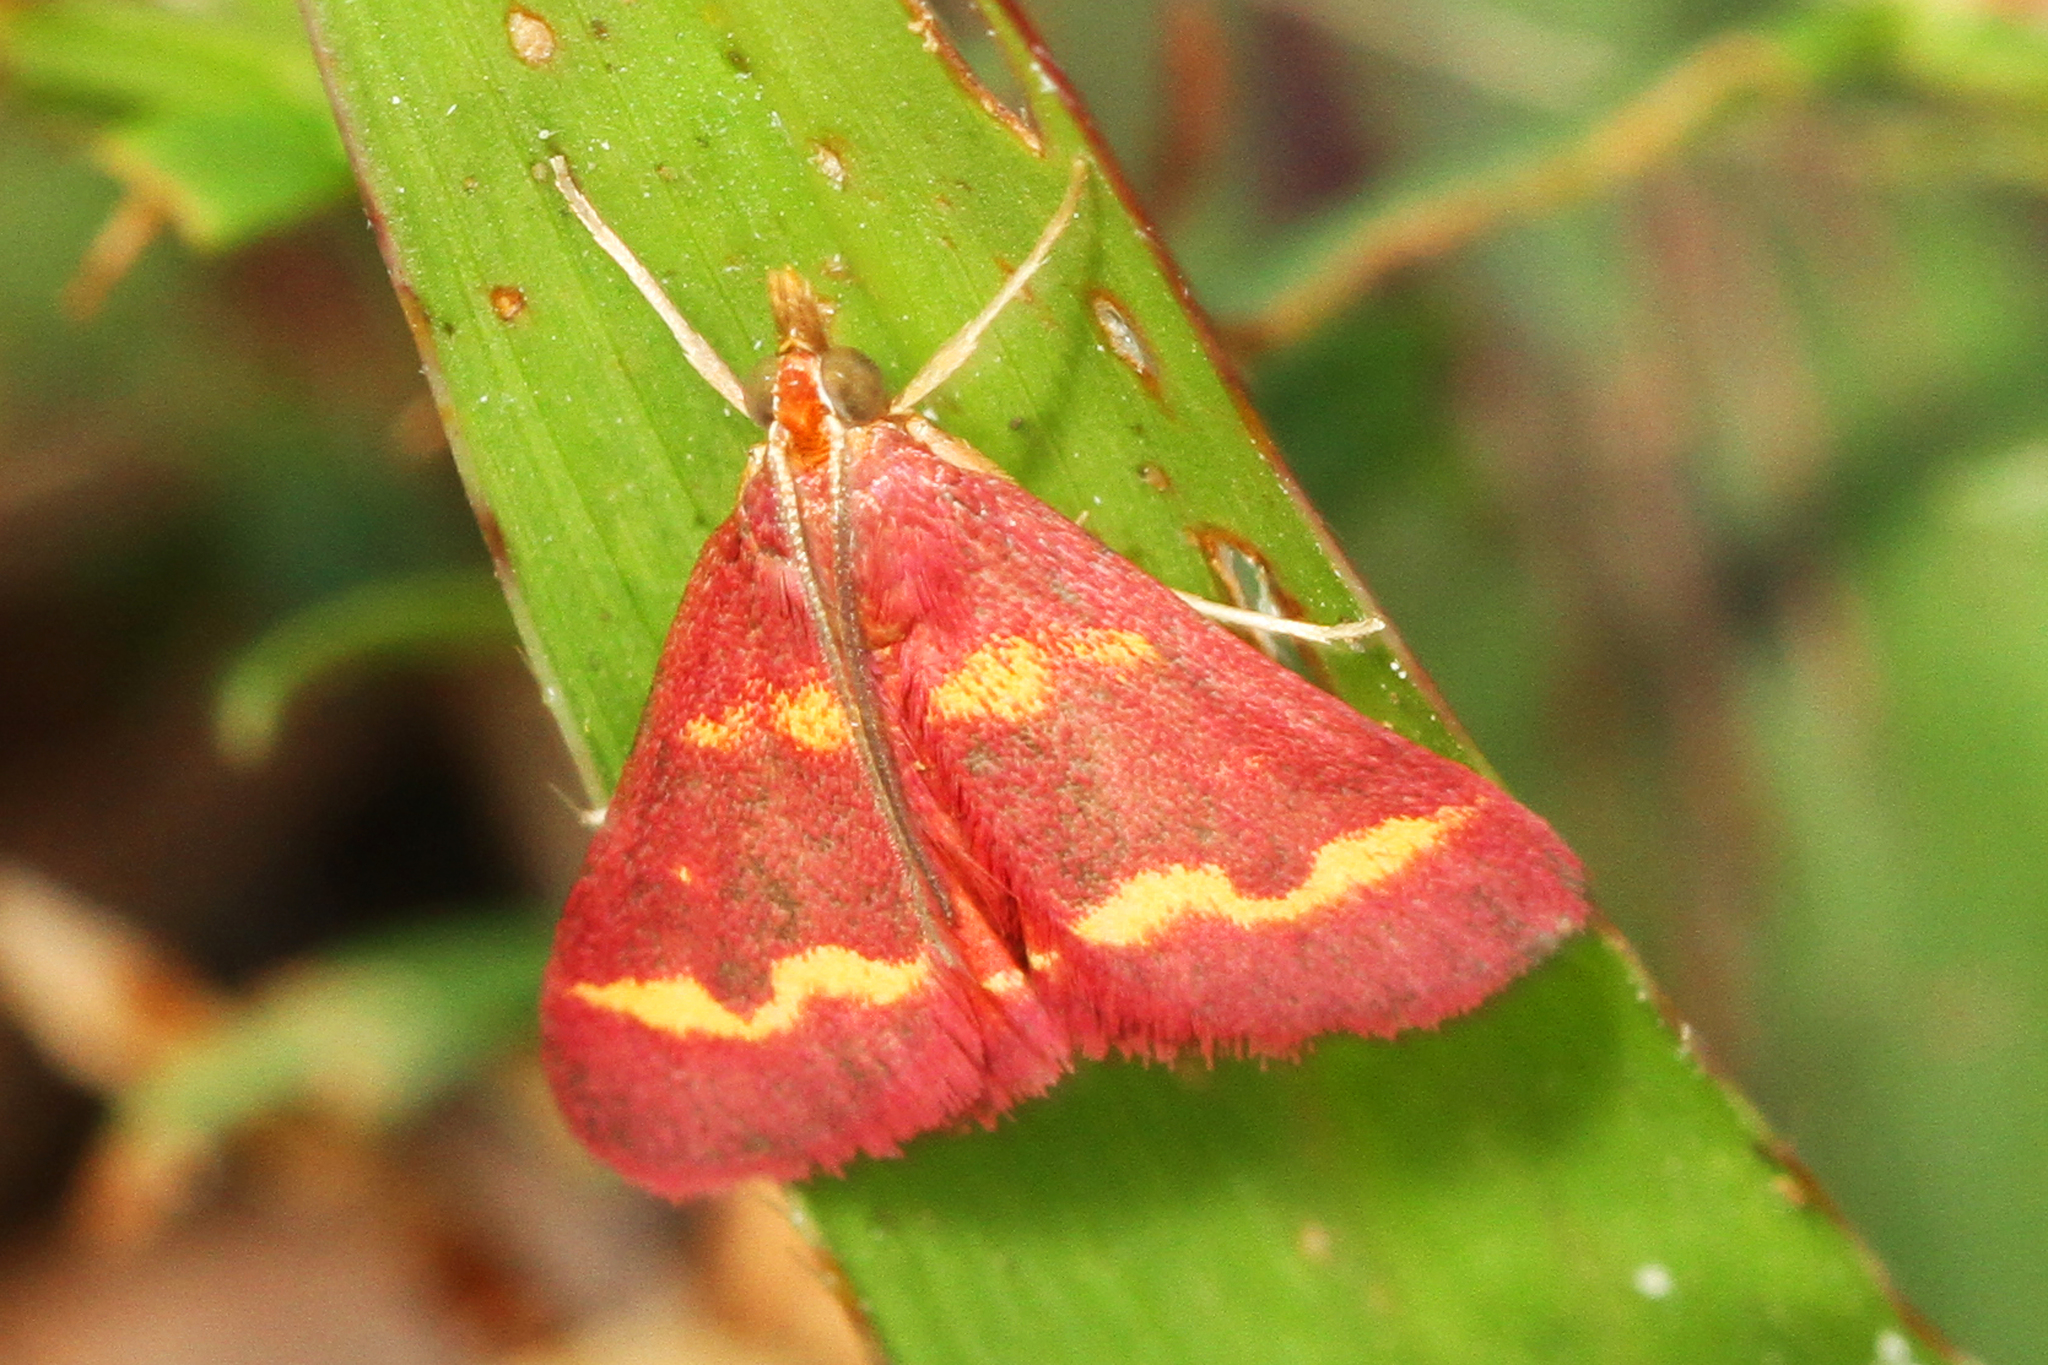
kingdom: Animalia
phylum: Arthropoda
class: Insecta
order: Lepidoptera
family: Crambidae
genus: Pyrausta
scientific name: Pyrausta tyralis
